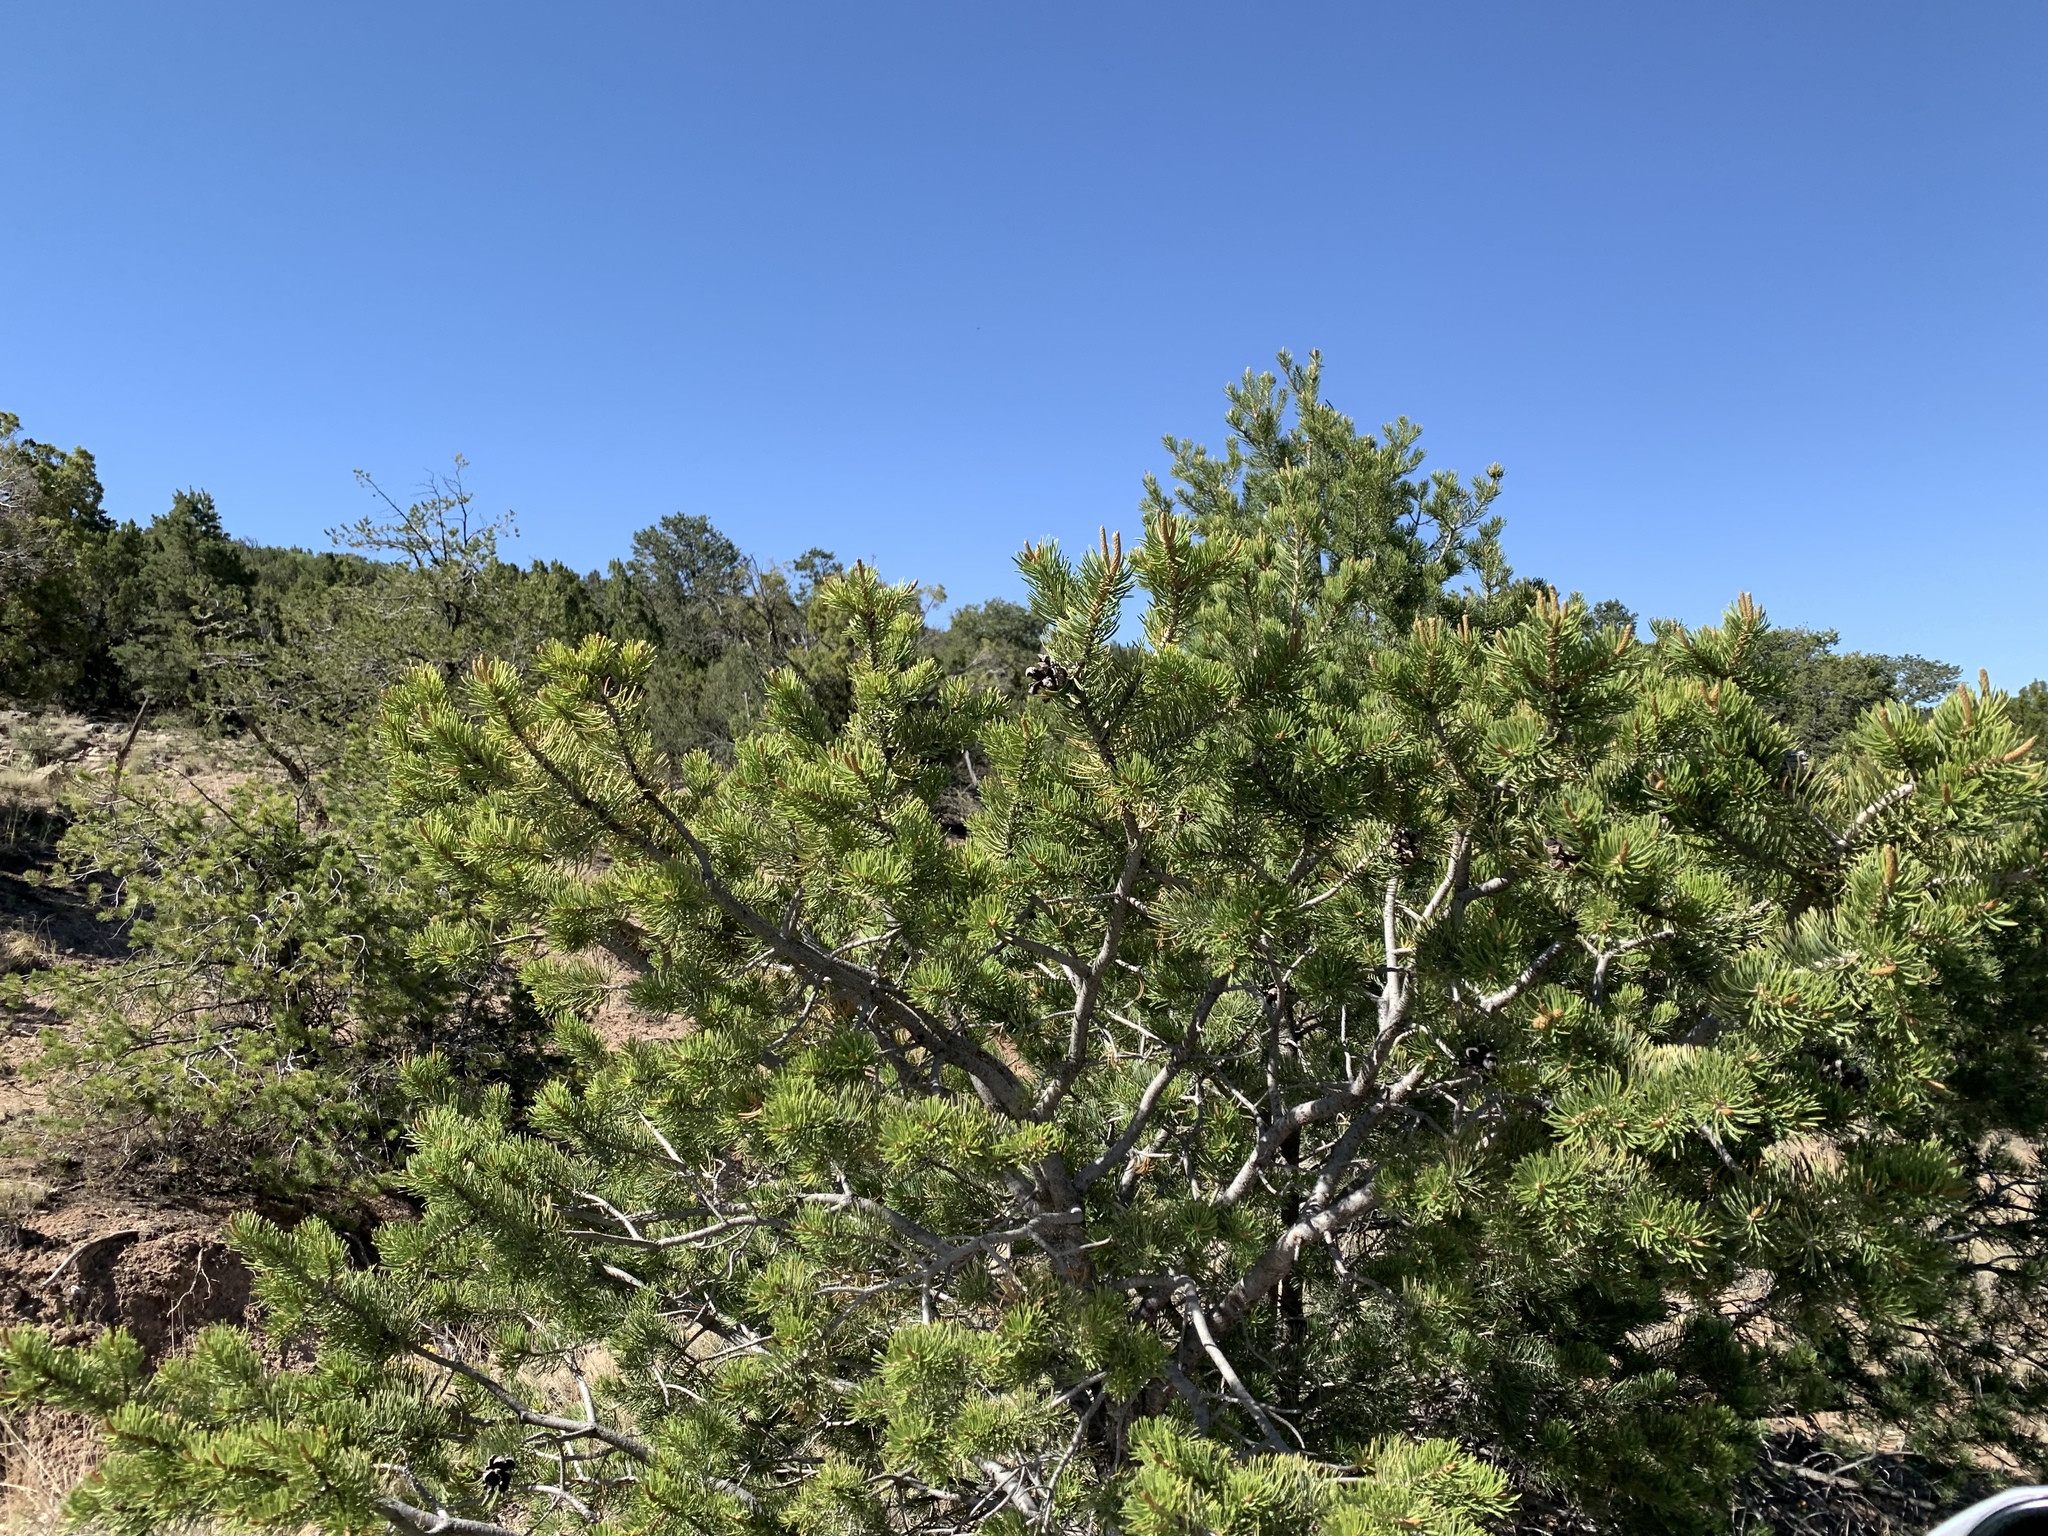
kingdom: Plantae
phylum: Tracheophyta
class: Pinopsida
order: Pinales
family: Pinaceae
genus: Pinus
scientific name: Pinus edulis
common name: Colorado pinyon
